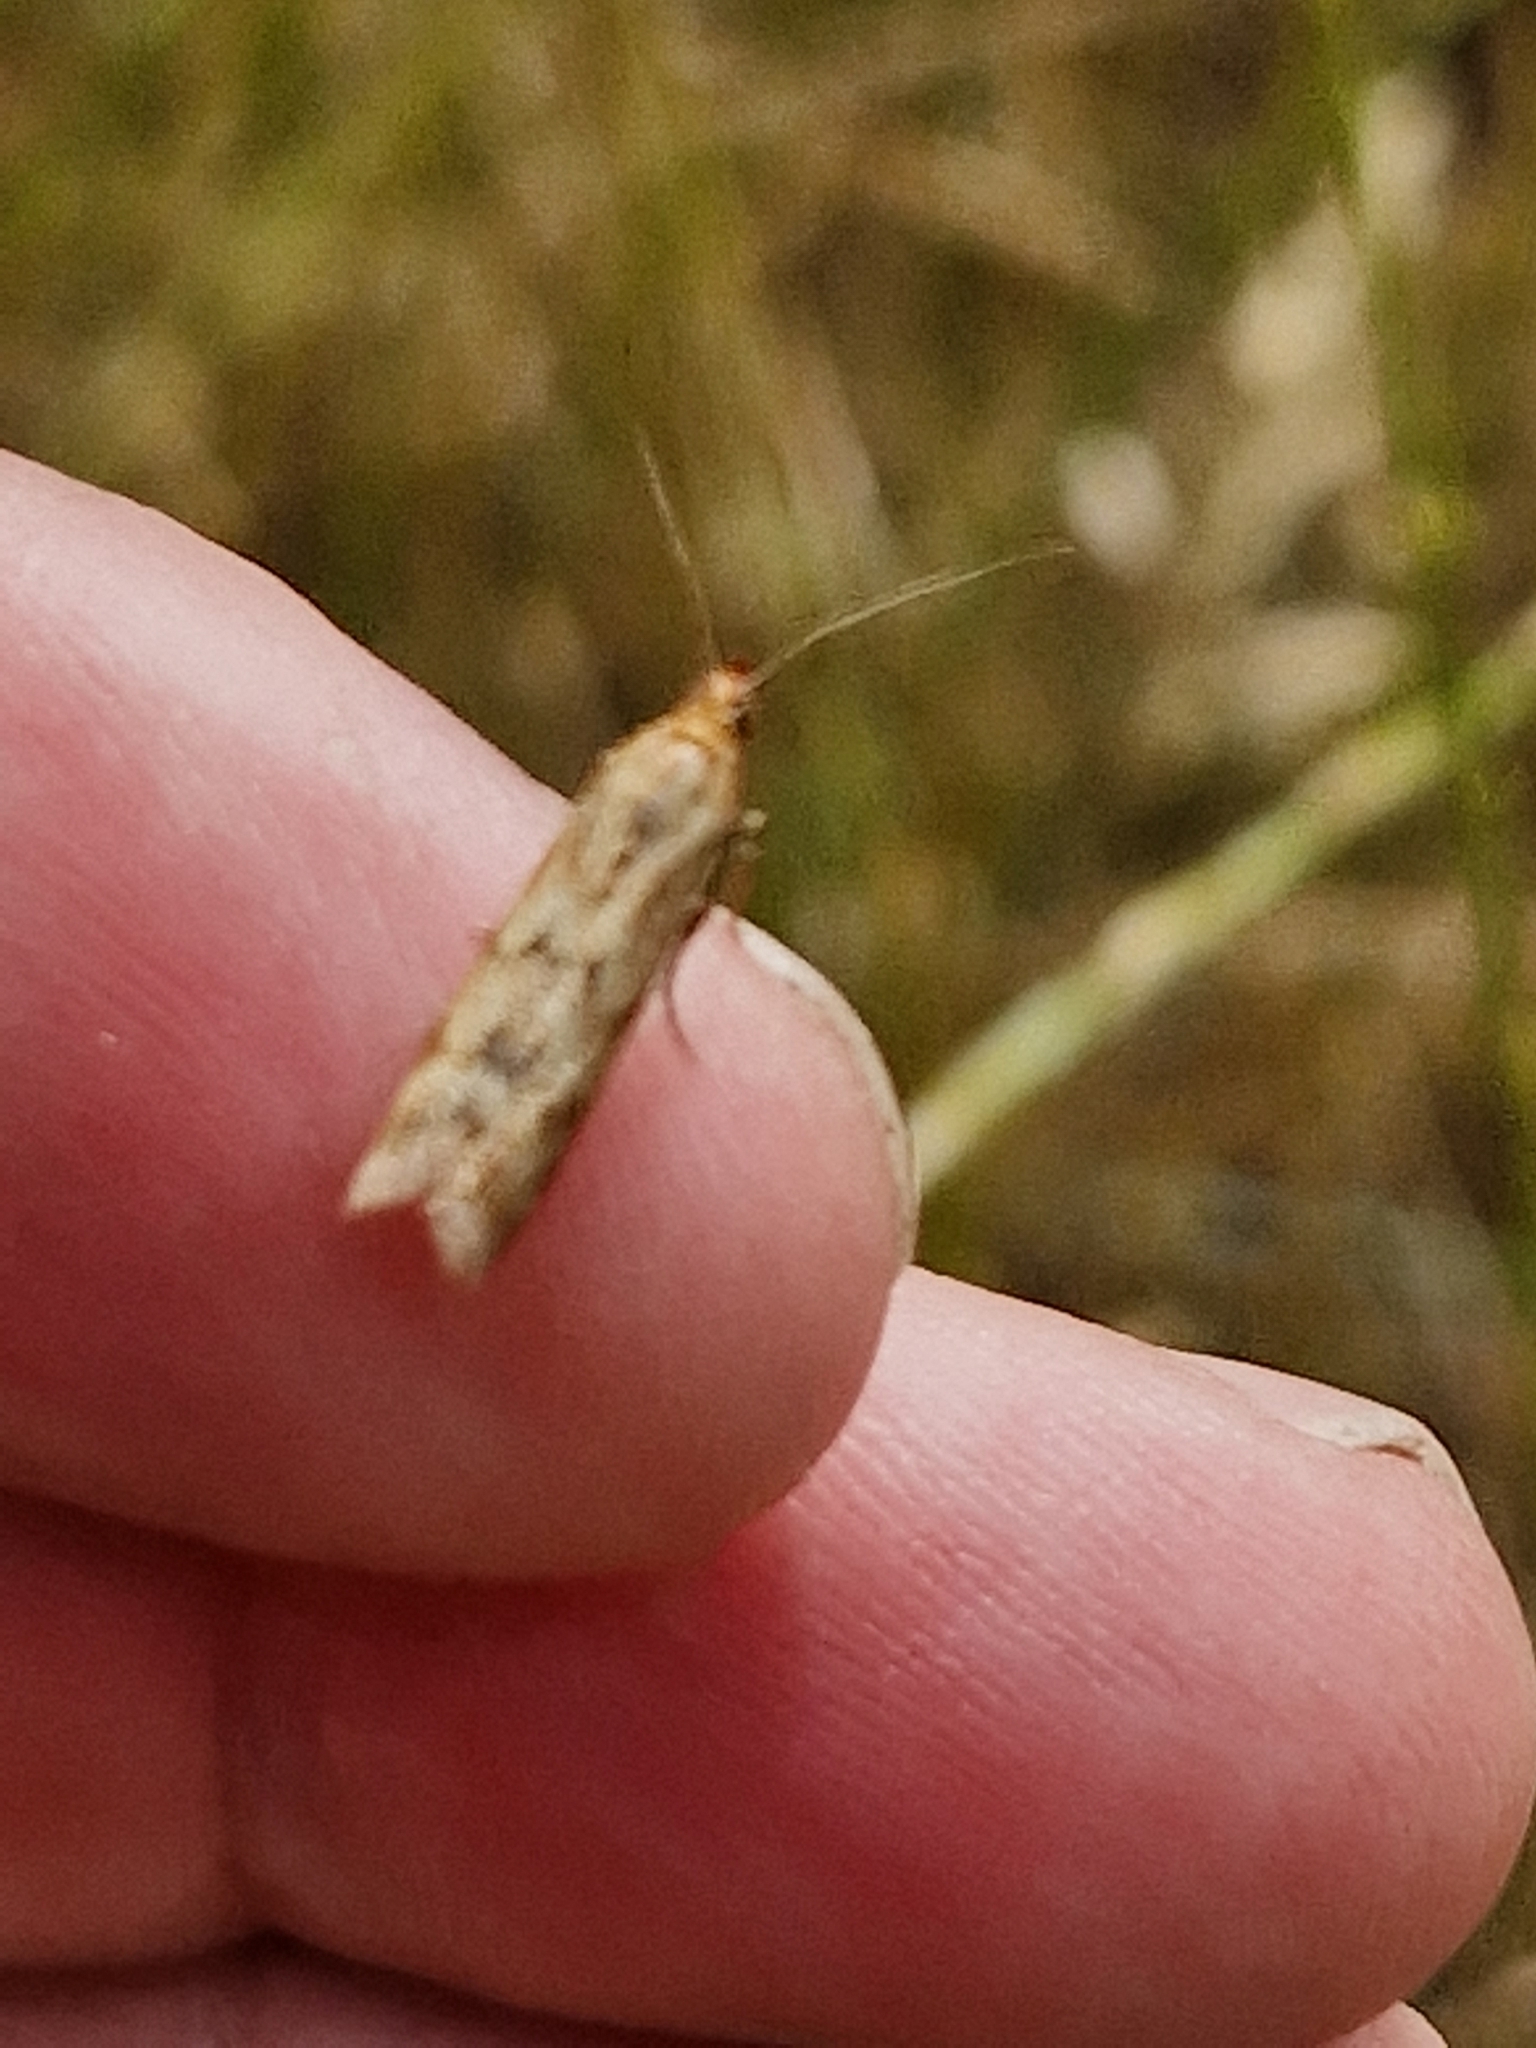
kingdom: Animalia
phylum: Arthropoda
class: Insecta
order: Lepidoptera
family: Pyralidae
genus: Homoeosoma
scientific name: Homoeosoma sinuella
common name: Twin-barred knot-horn
